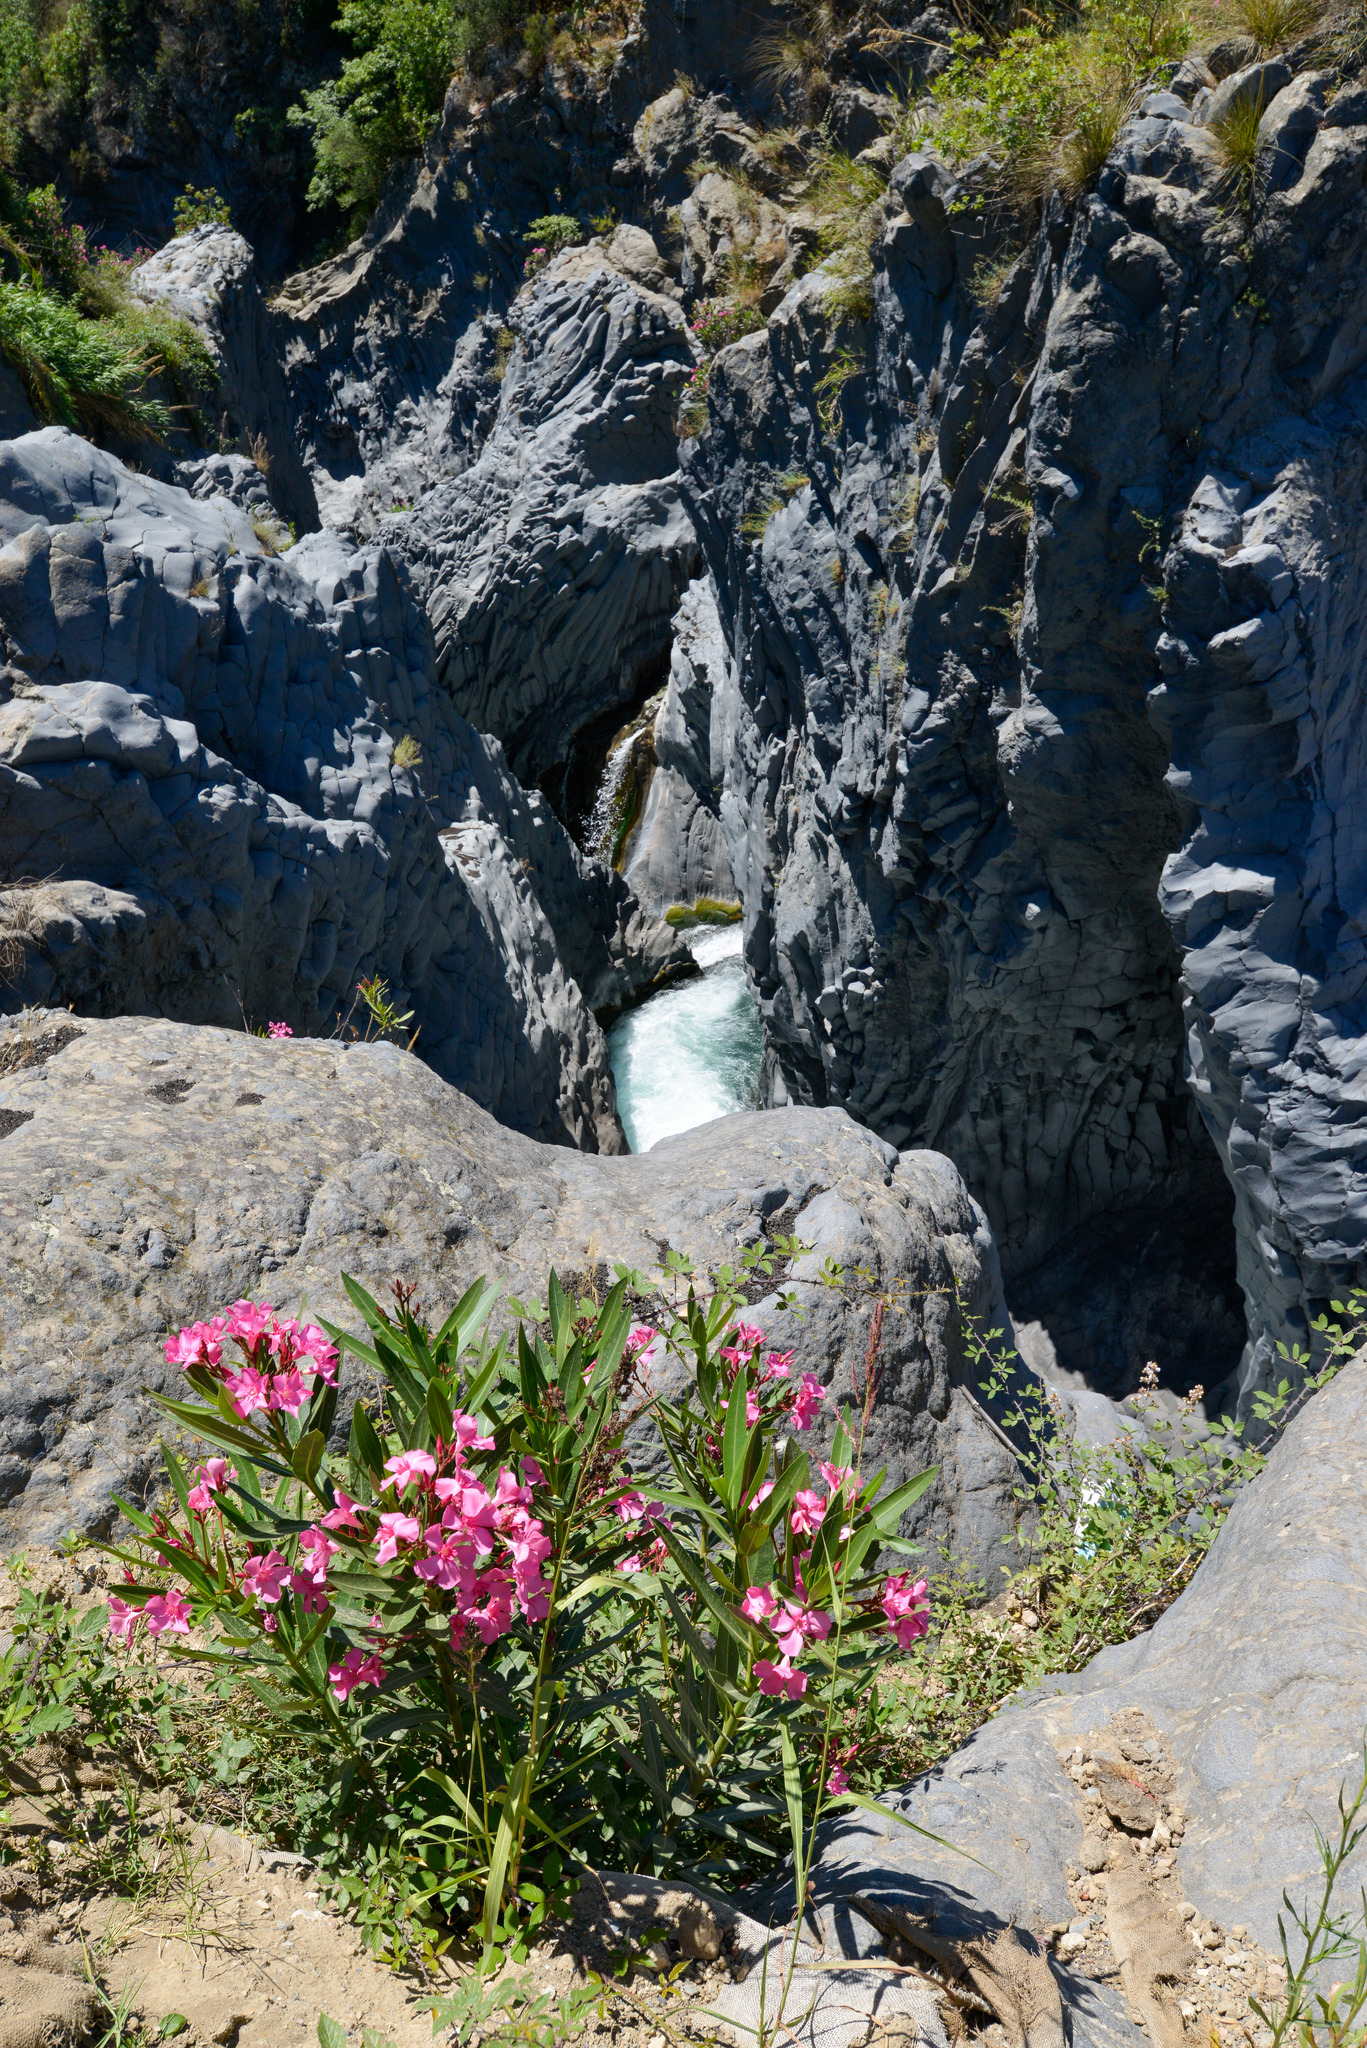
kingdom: Plantae
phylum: Tracheophyta
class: Magnoliopsida
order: Gentianales
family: Apocynaceae
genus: Nerium
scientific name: Nerium oleander
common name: Oleander
